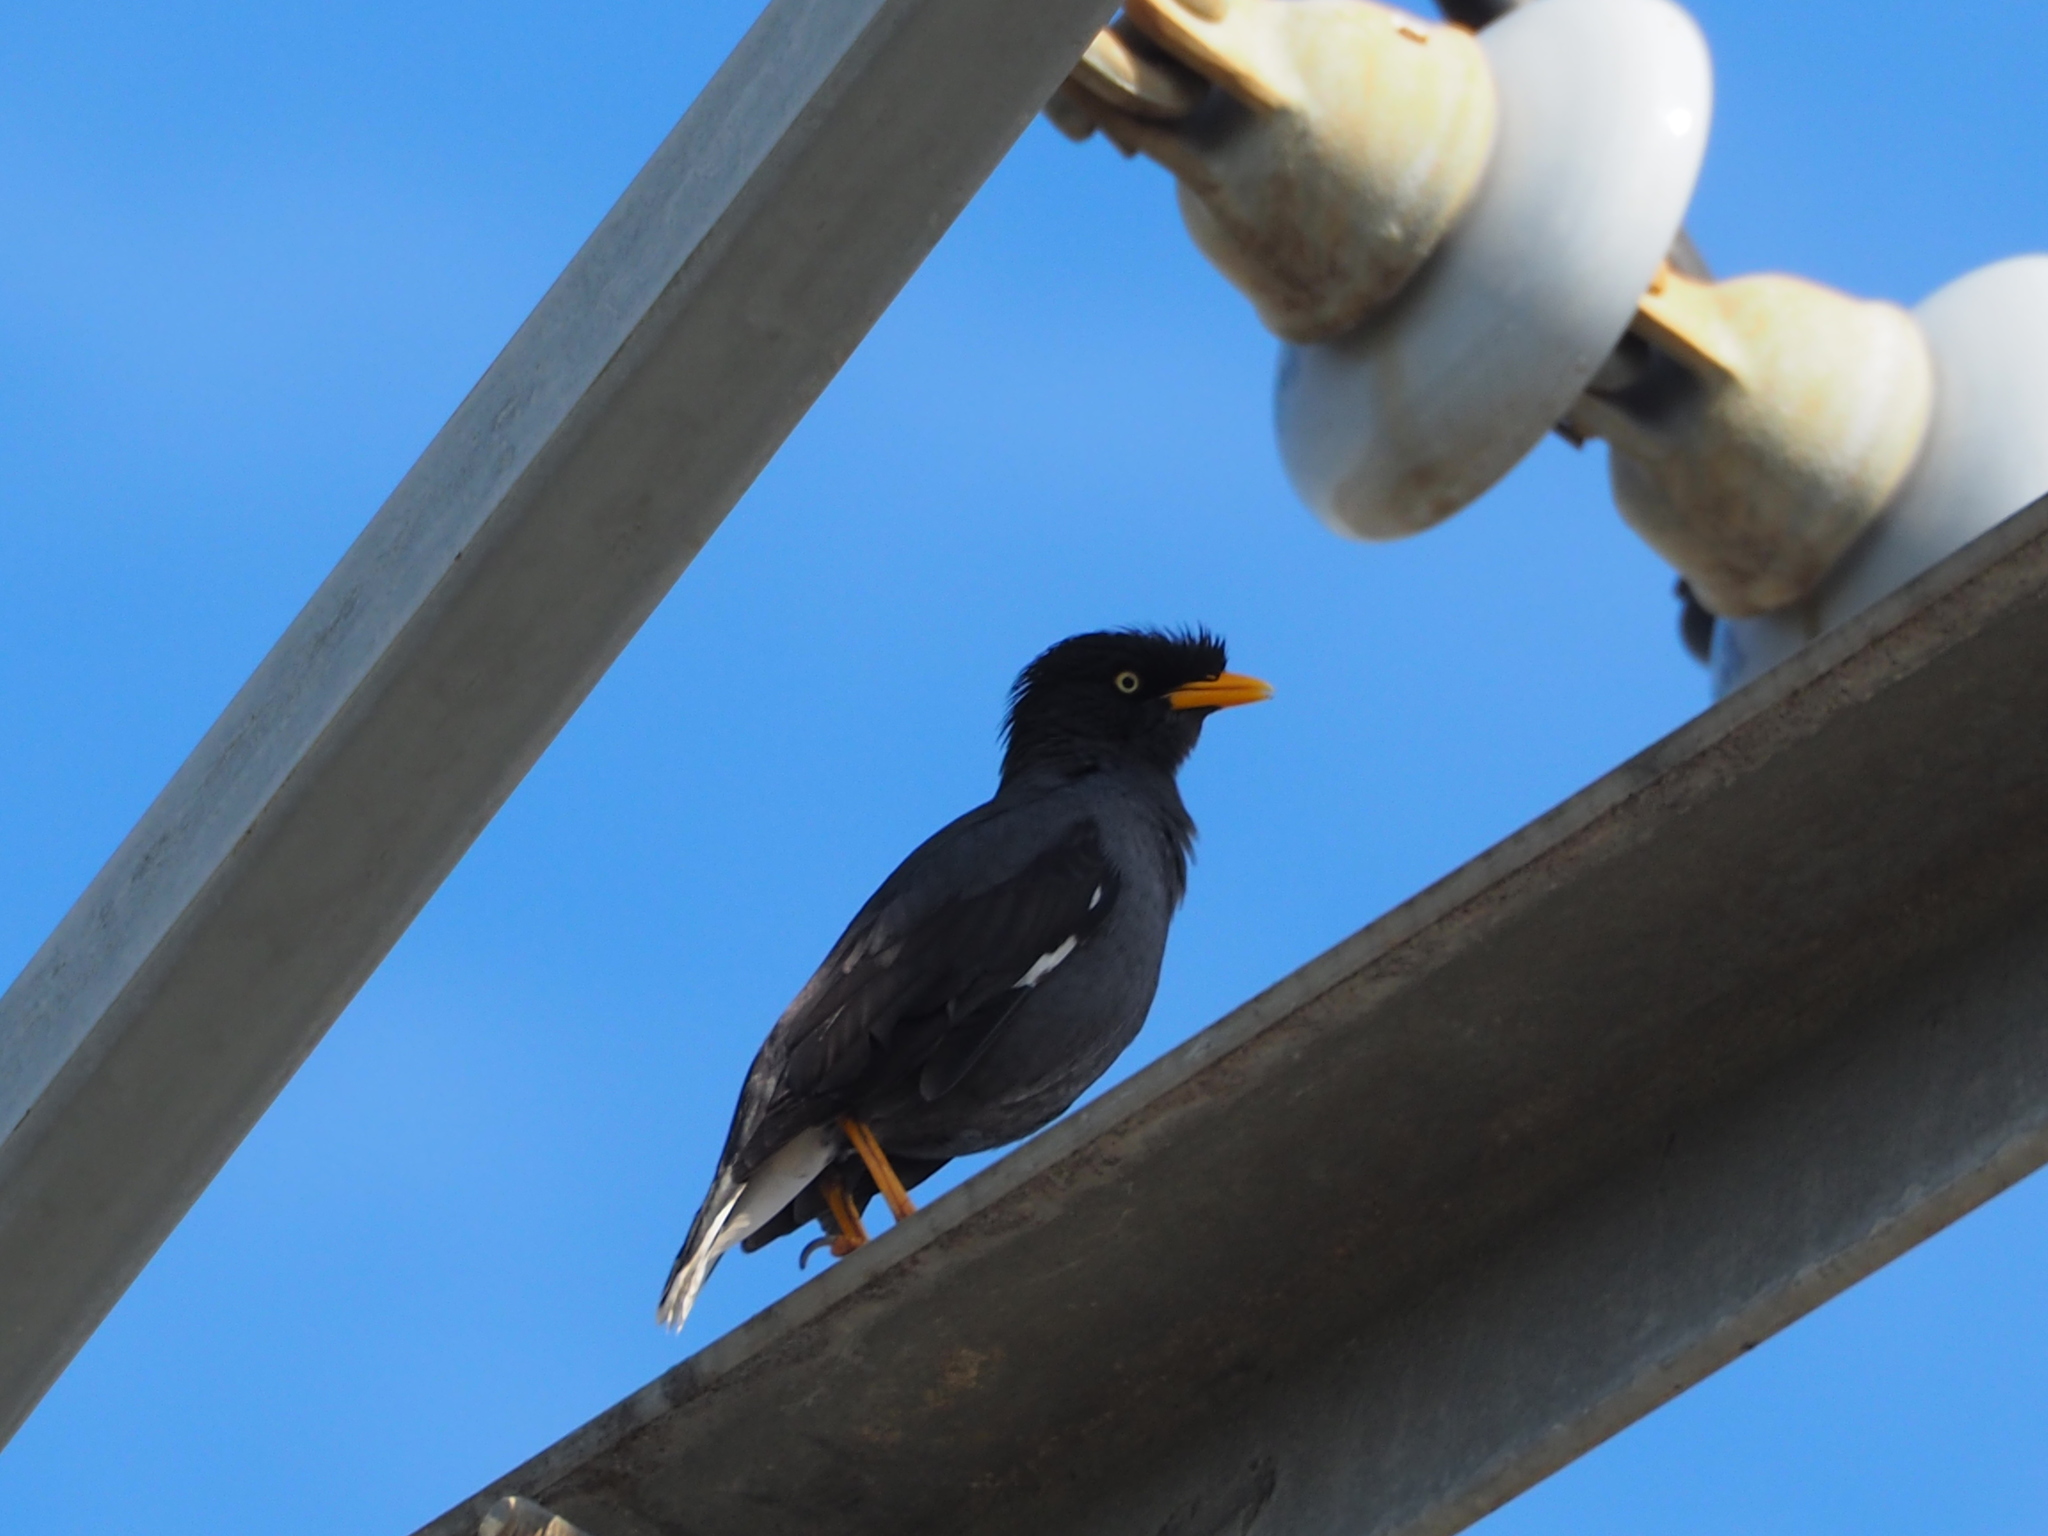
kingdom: Animalia
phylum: Chordata
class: Aves
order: Passeriformes
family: Sturnidae
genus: Acridotheres
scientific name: Acridotheres javanicus
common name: Javan myna
